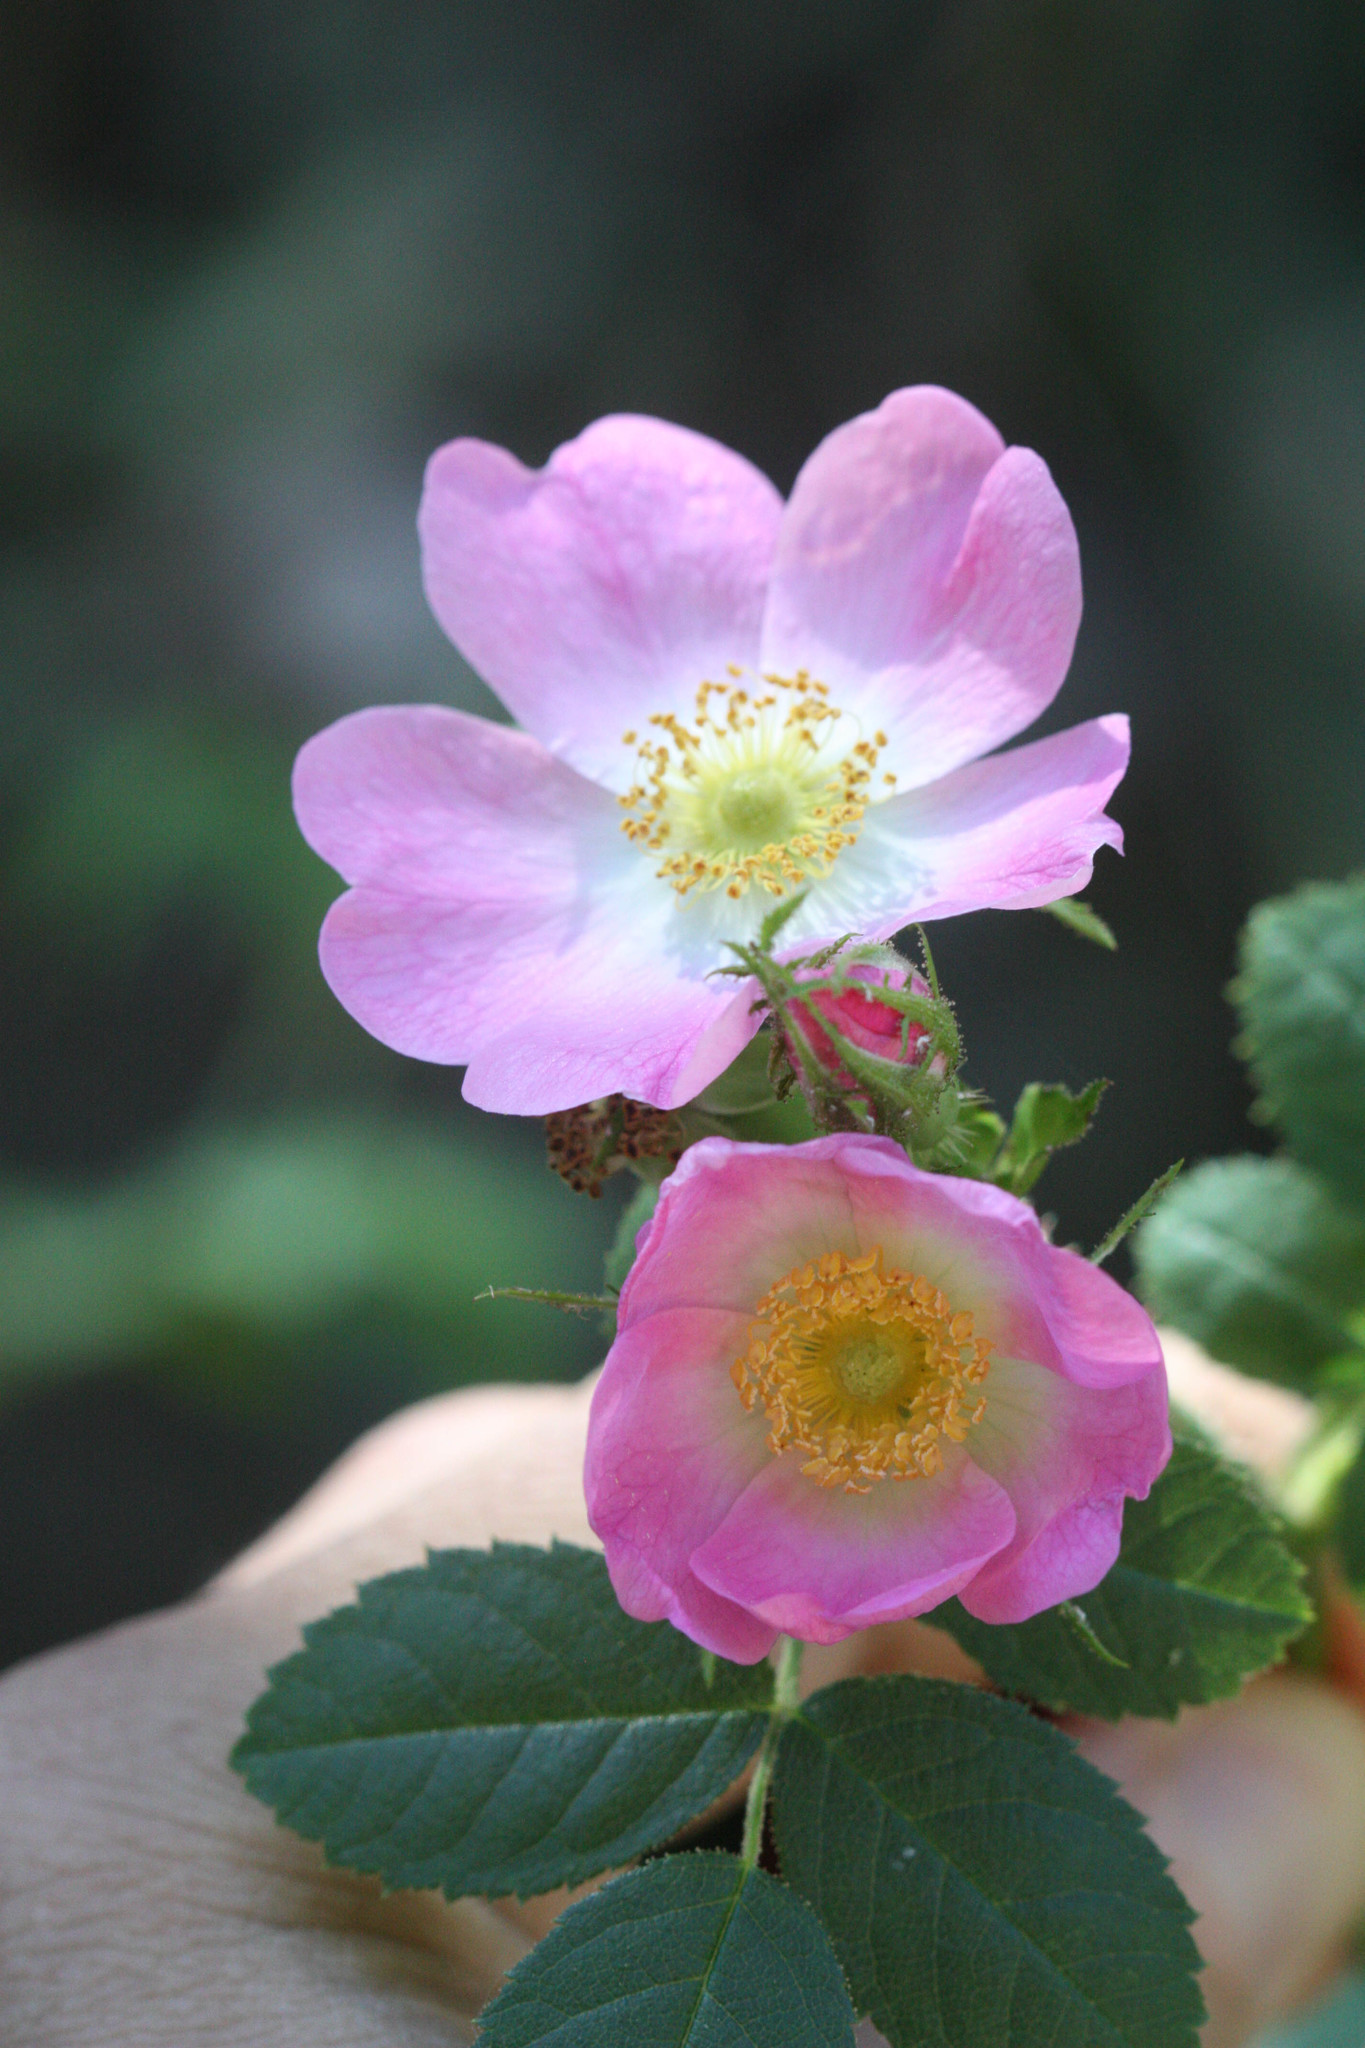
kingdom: Plantae
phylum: Tracheophyta
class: Magnoliopsida
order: Rosales
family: Rosaceae
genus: Rosa
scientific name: Rosa rubiginosa
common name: Sweet-briar
